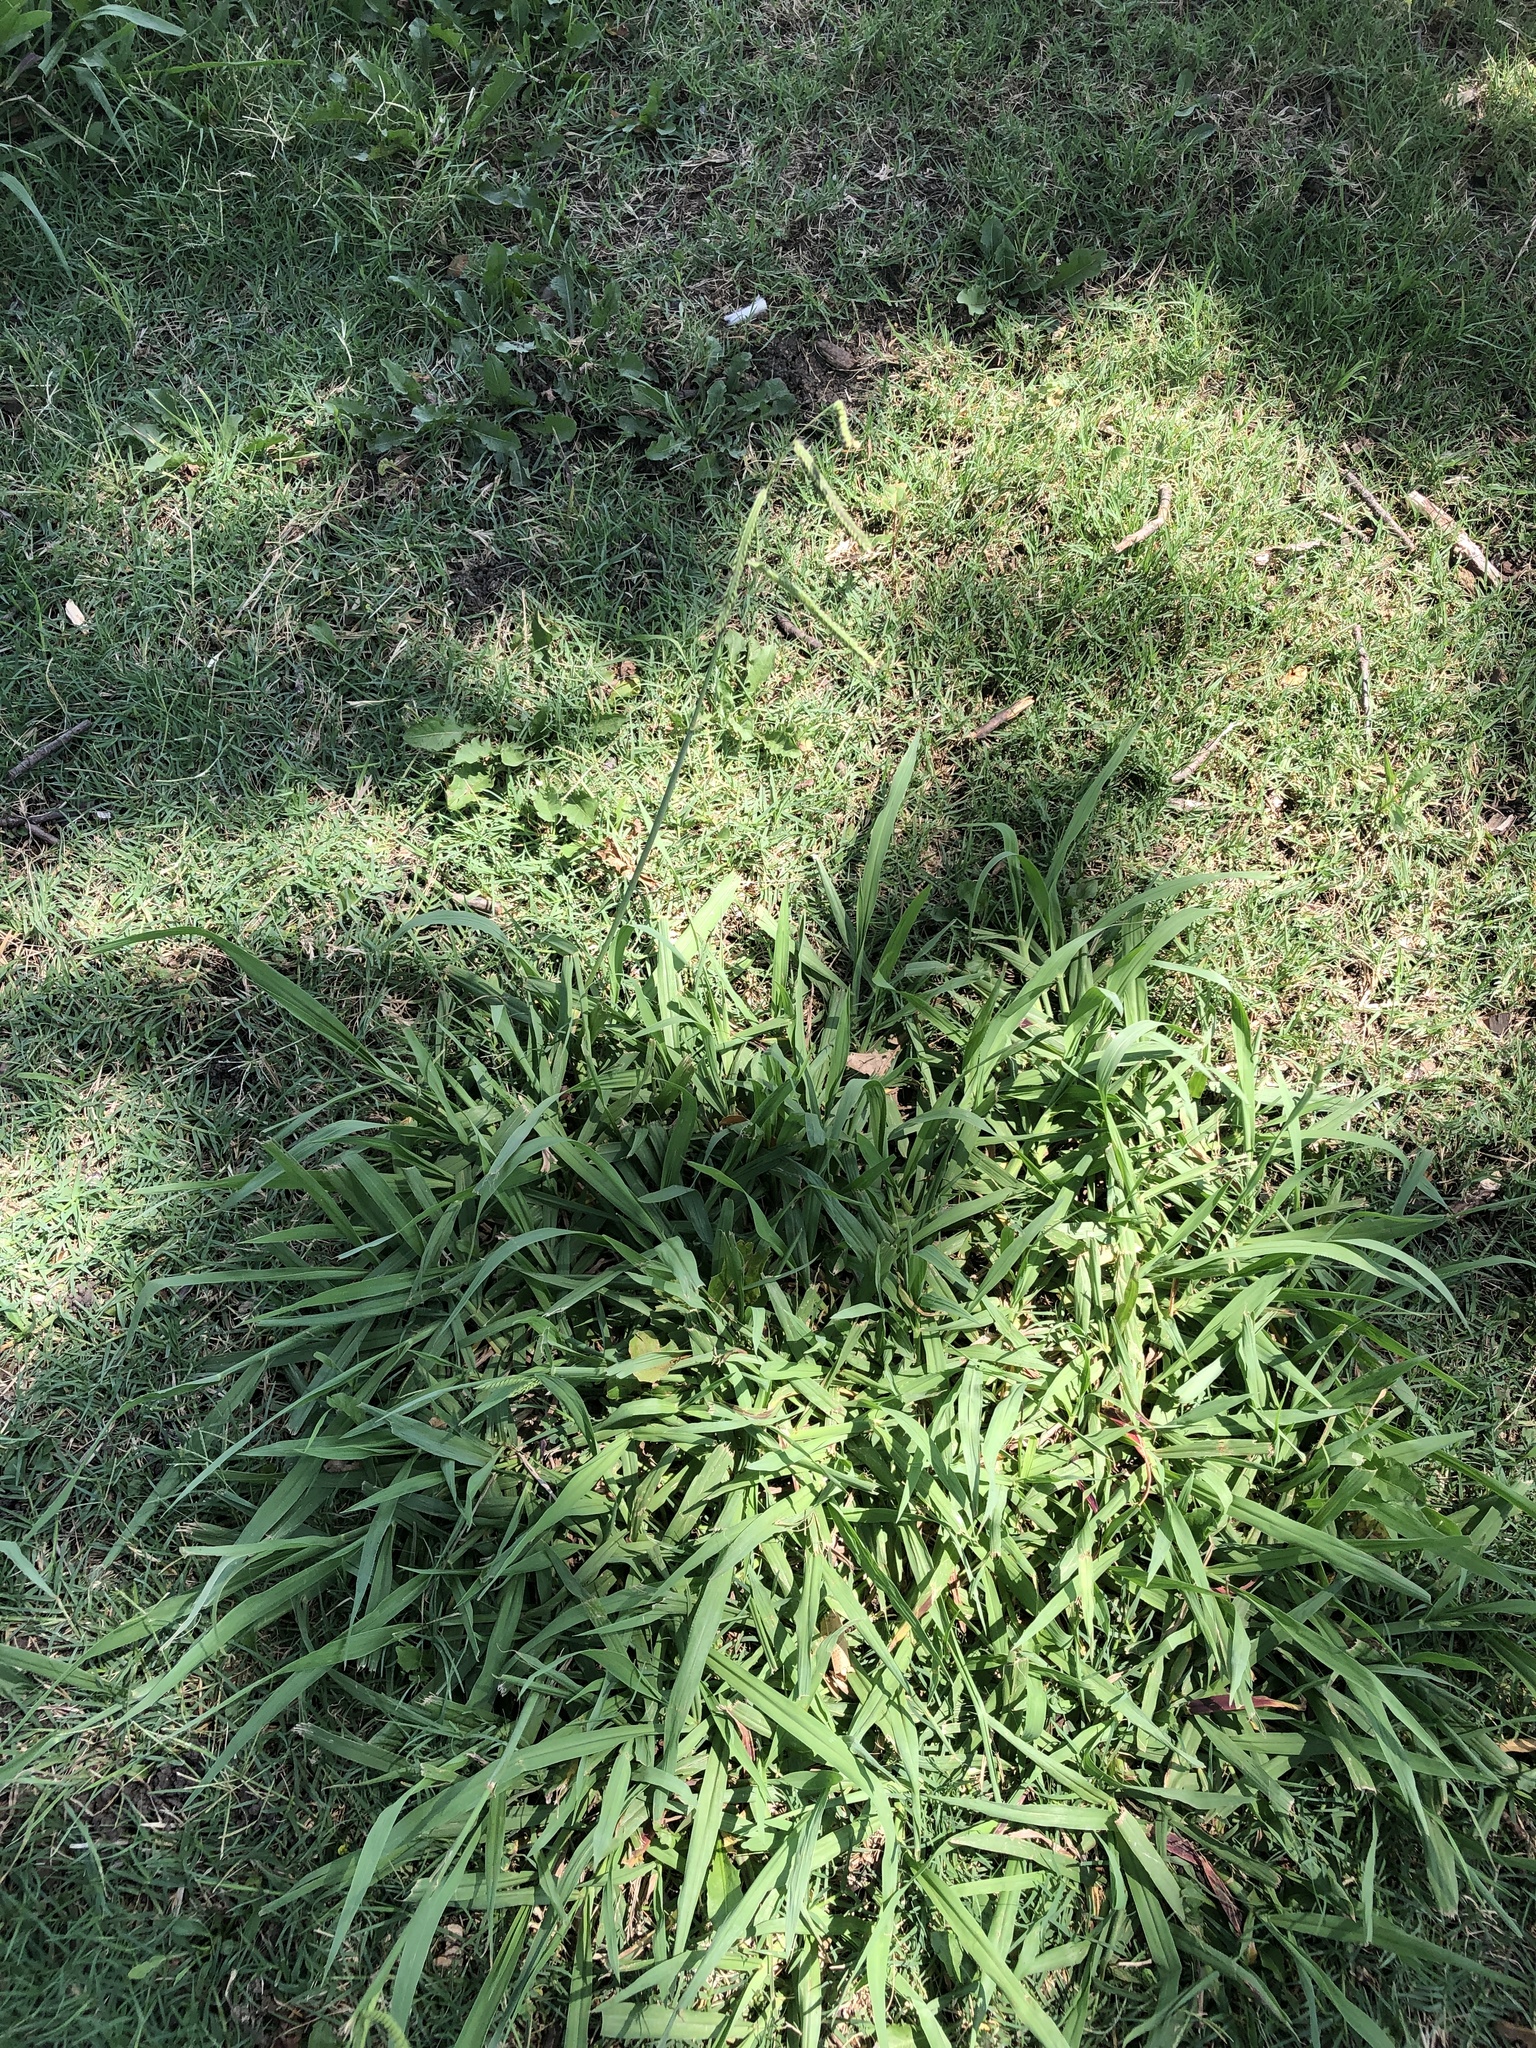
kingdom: Plantae
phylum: Tracheophyta
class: Liliopsida
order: Poales
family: Poaceae
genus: Paspalum
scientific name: Paspalum dilatatum
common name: Dallisgrass
